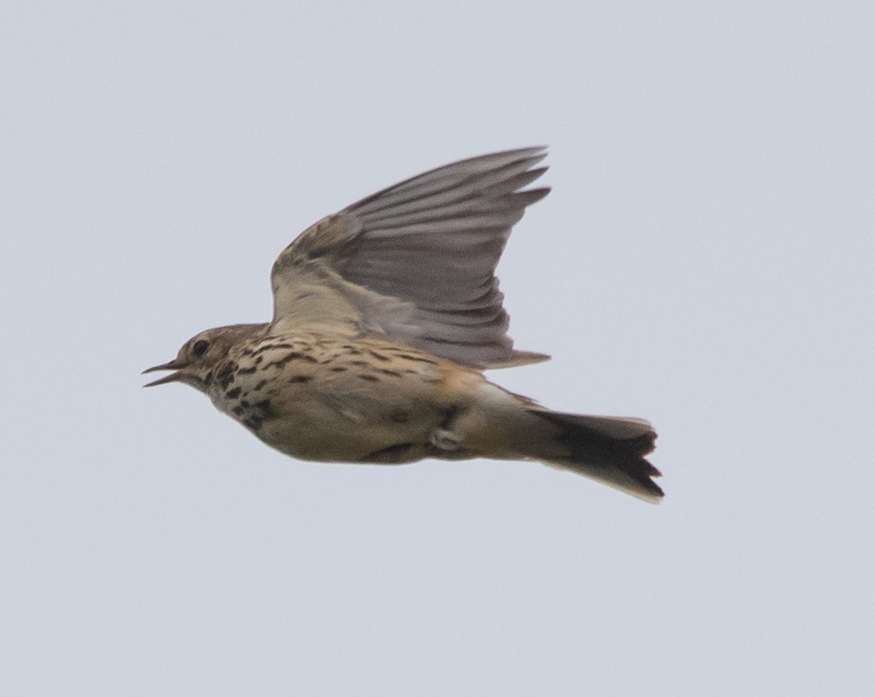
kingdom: Animalia
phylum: Chordata
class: Aves
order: Passeriformes
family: Turdidae
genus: Turdus
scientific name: Turdus philomelos
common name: Song thrush
